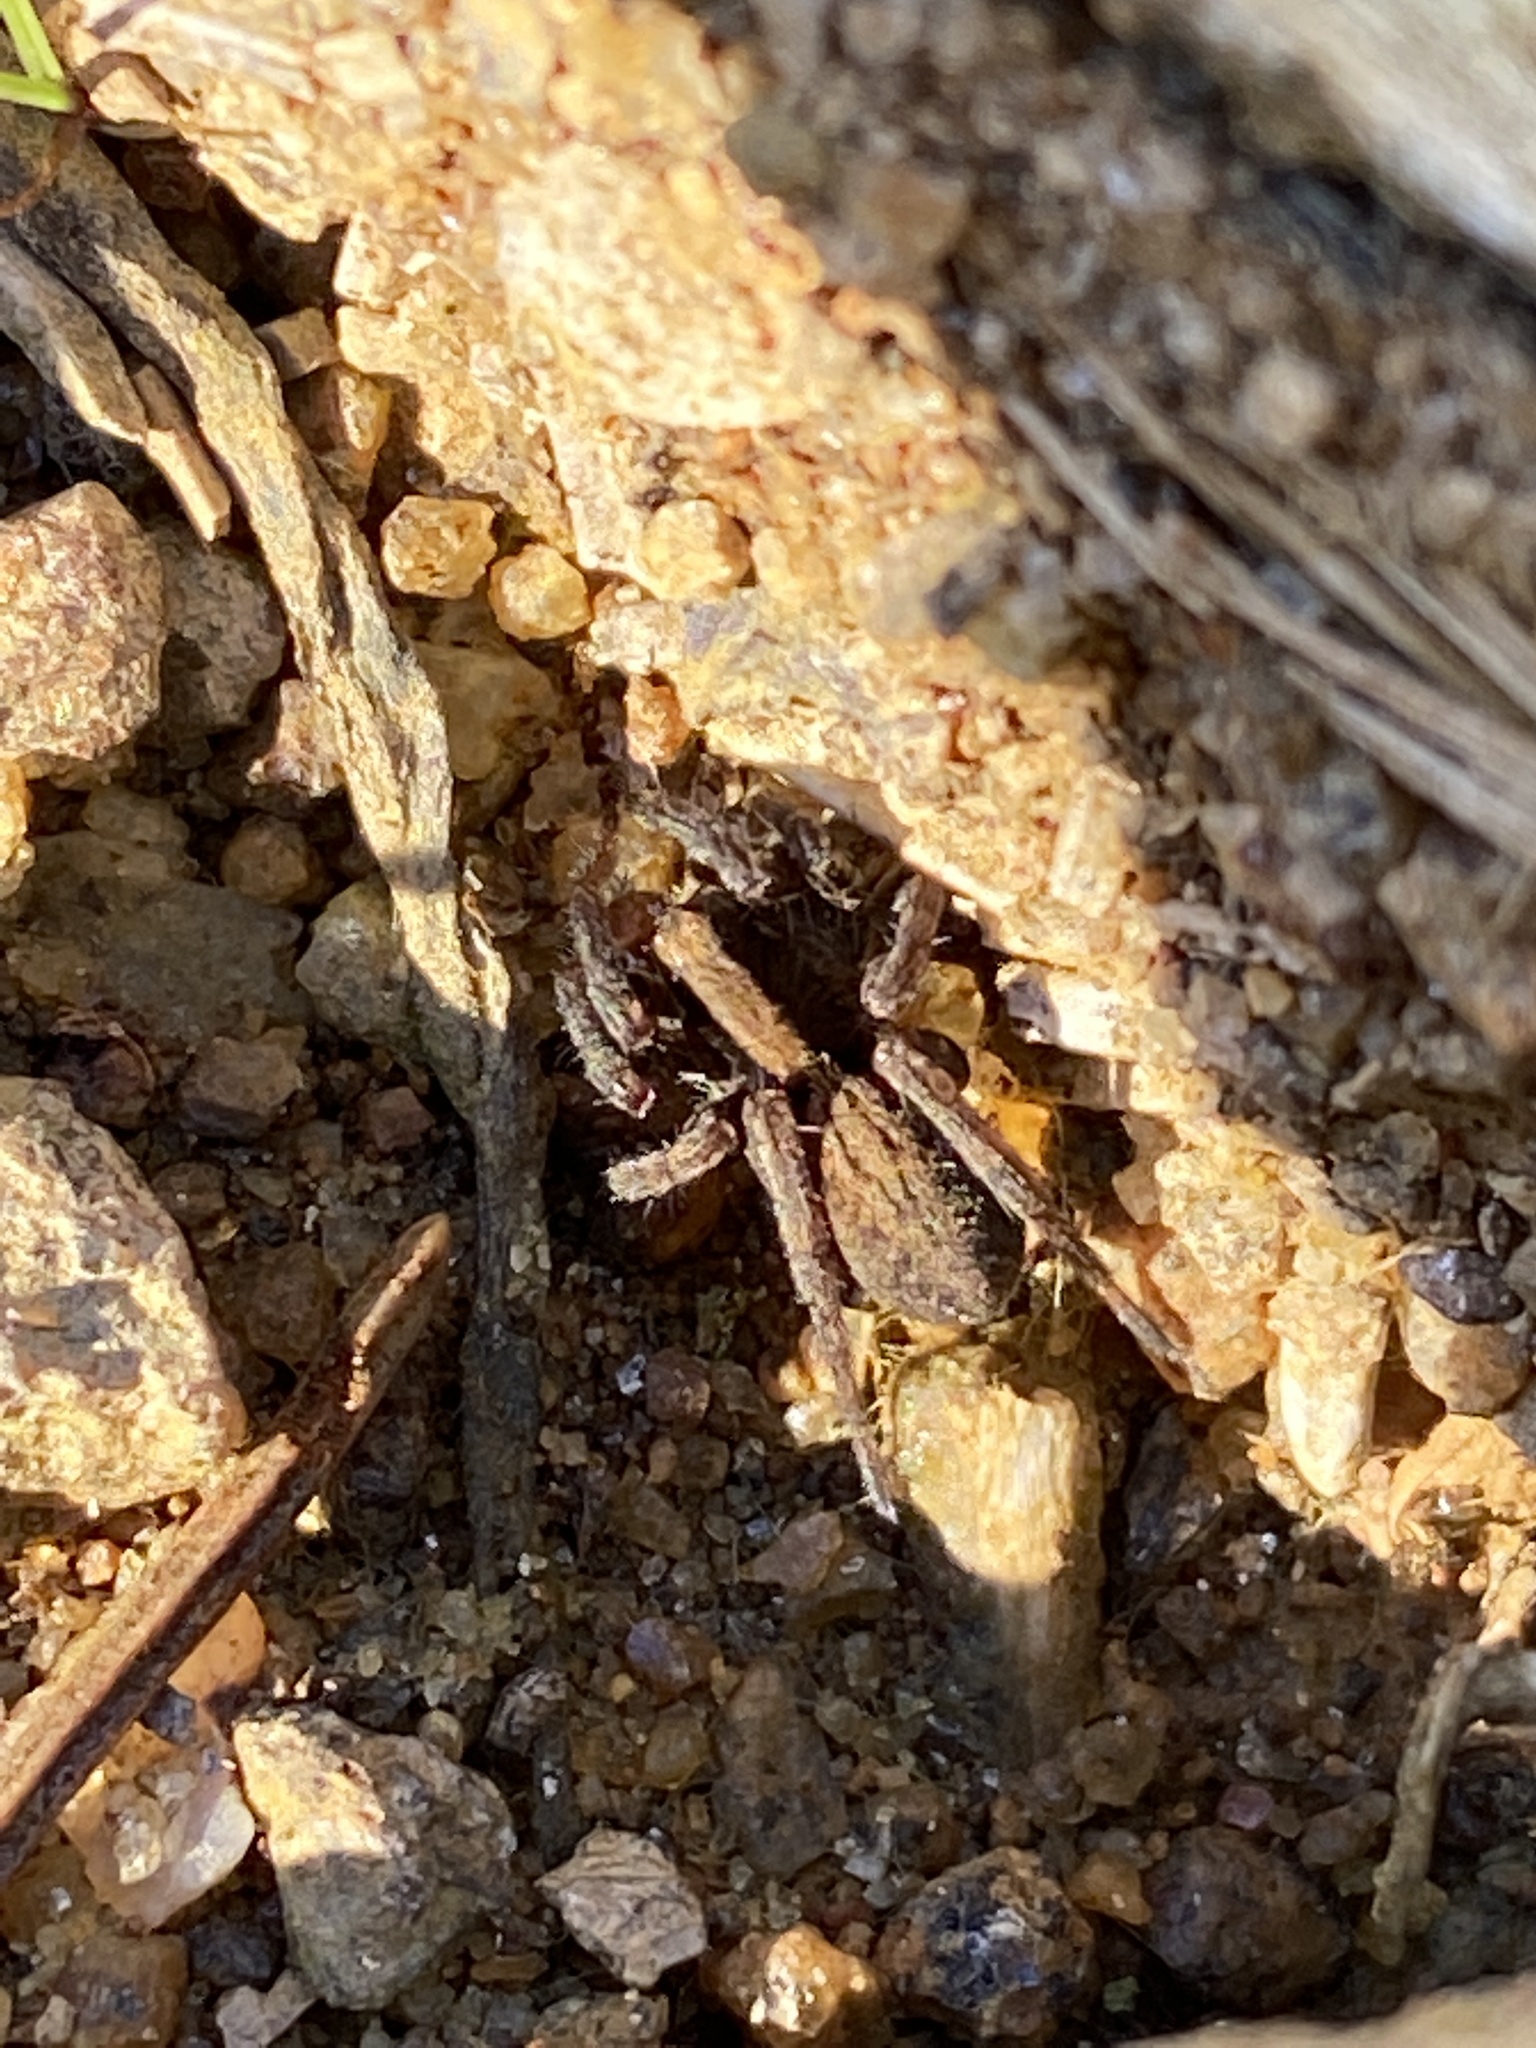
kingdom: Animalia
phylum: Arthropoda
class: Arachnida
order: Araneae
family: Lycosidae
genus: Alopecosa
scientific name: Alopecosa pulverulenta
